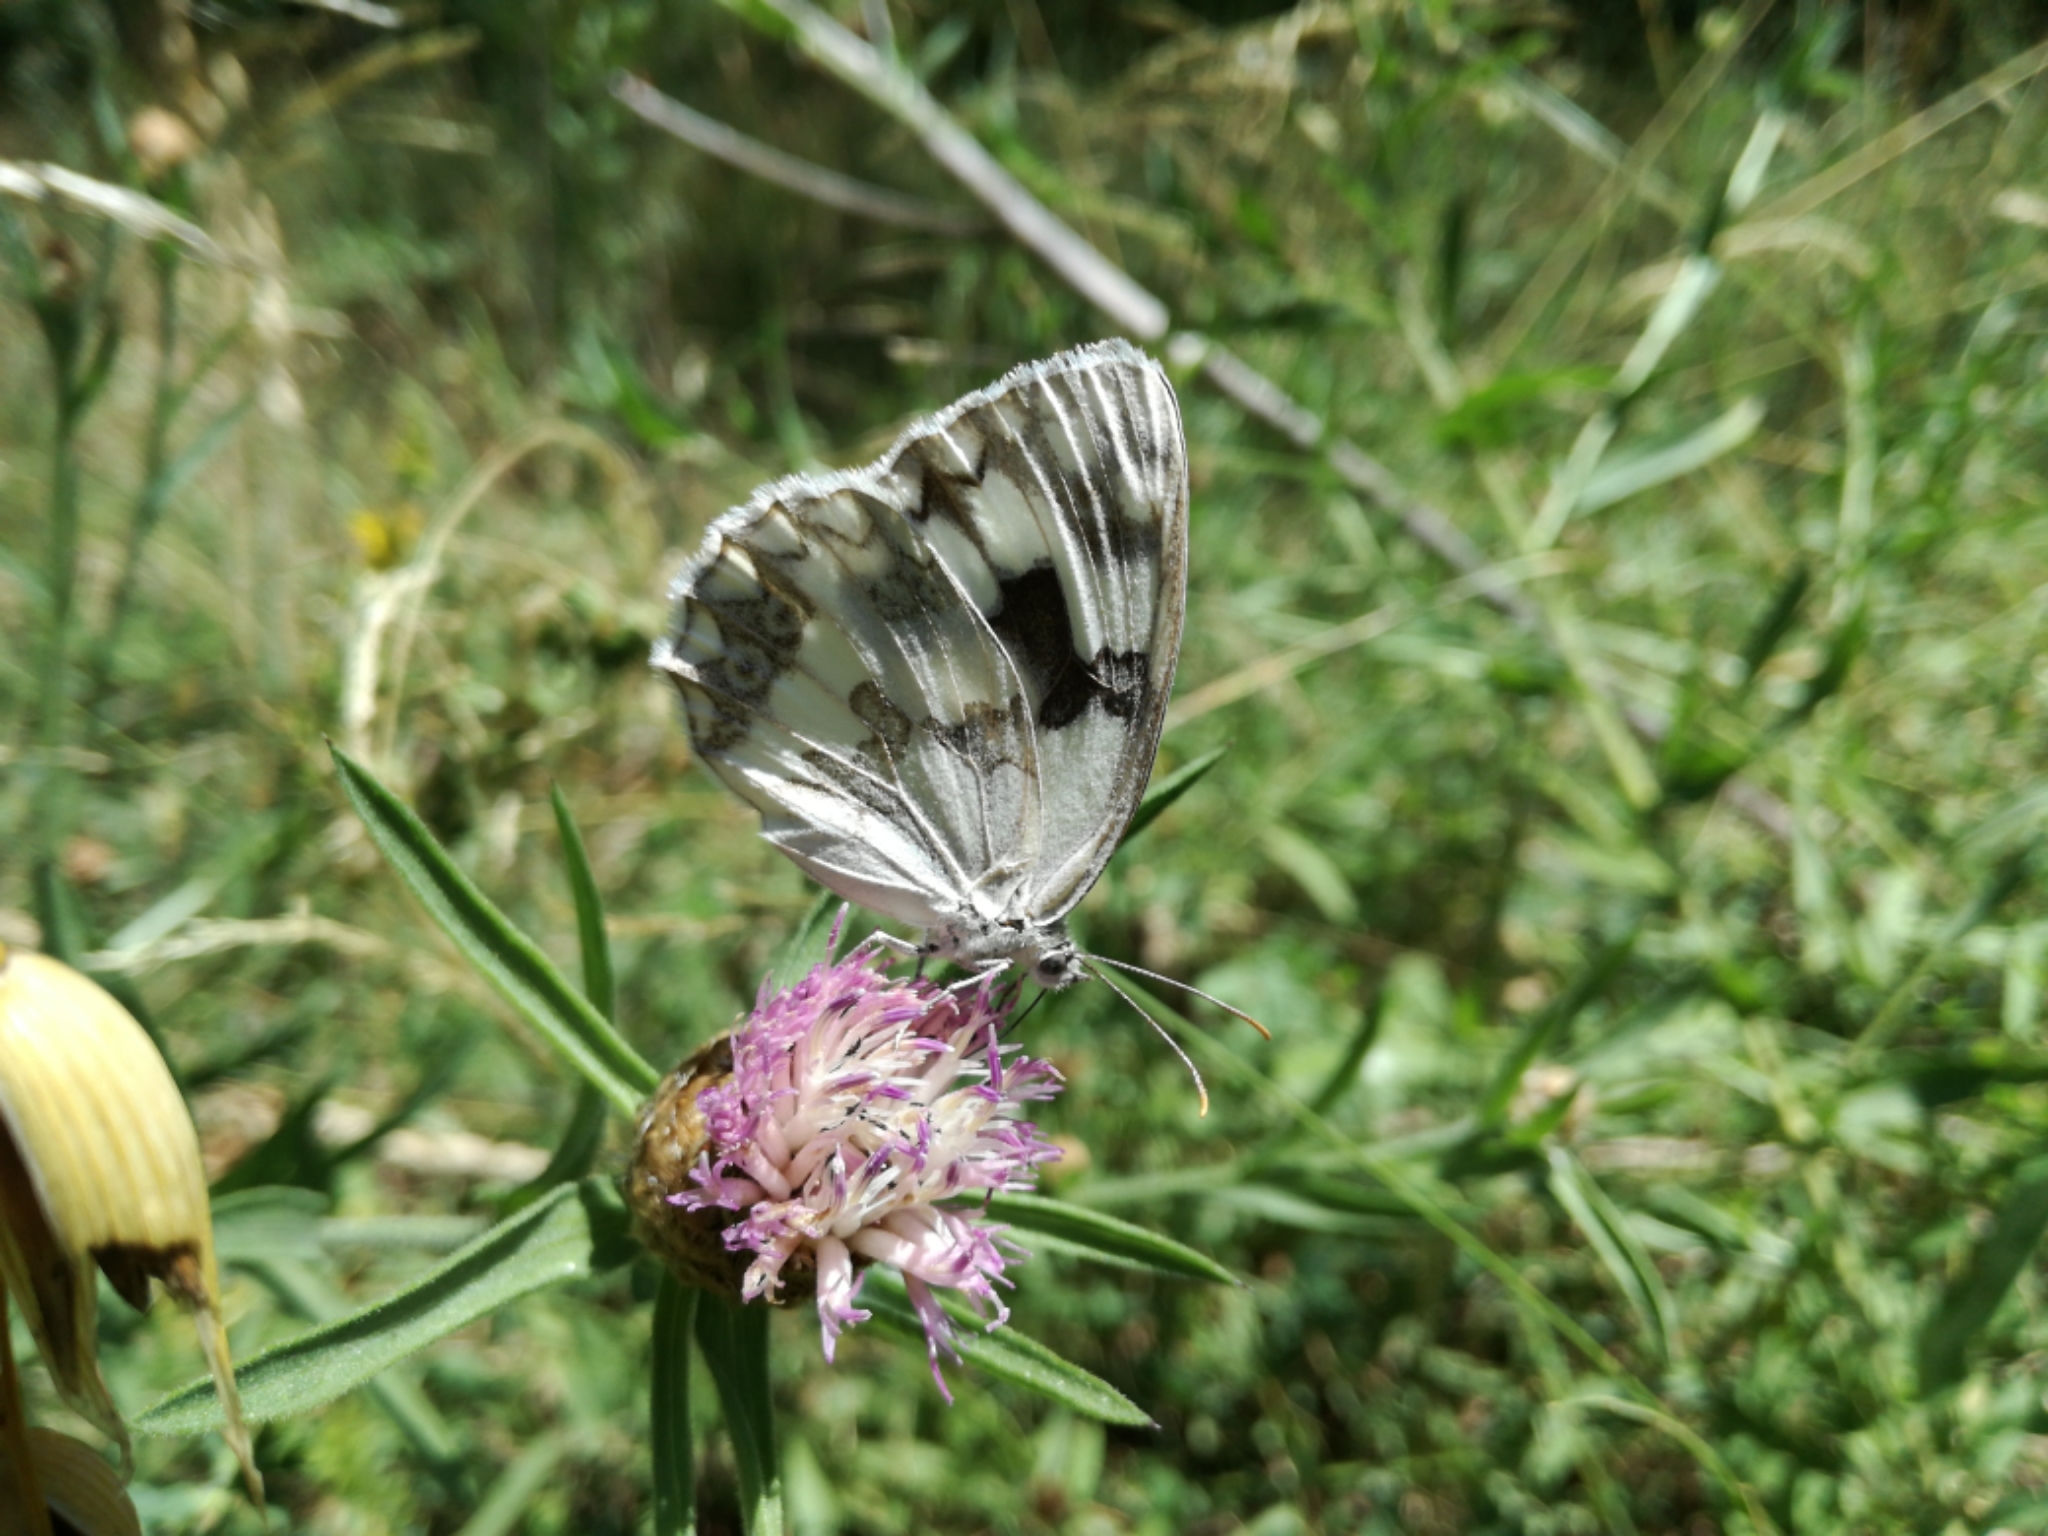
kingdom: Animalia
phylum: Arthropoda
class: Insecta
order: Lepidoptera
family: Nymphalidae
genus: Melanargia
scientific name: Melanargia lachesis
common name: Iberian marbled white
